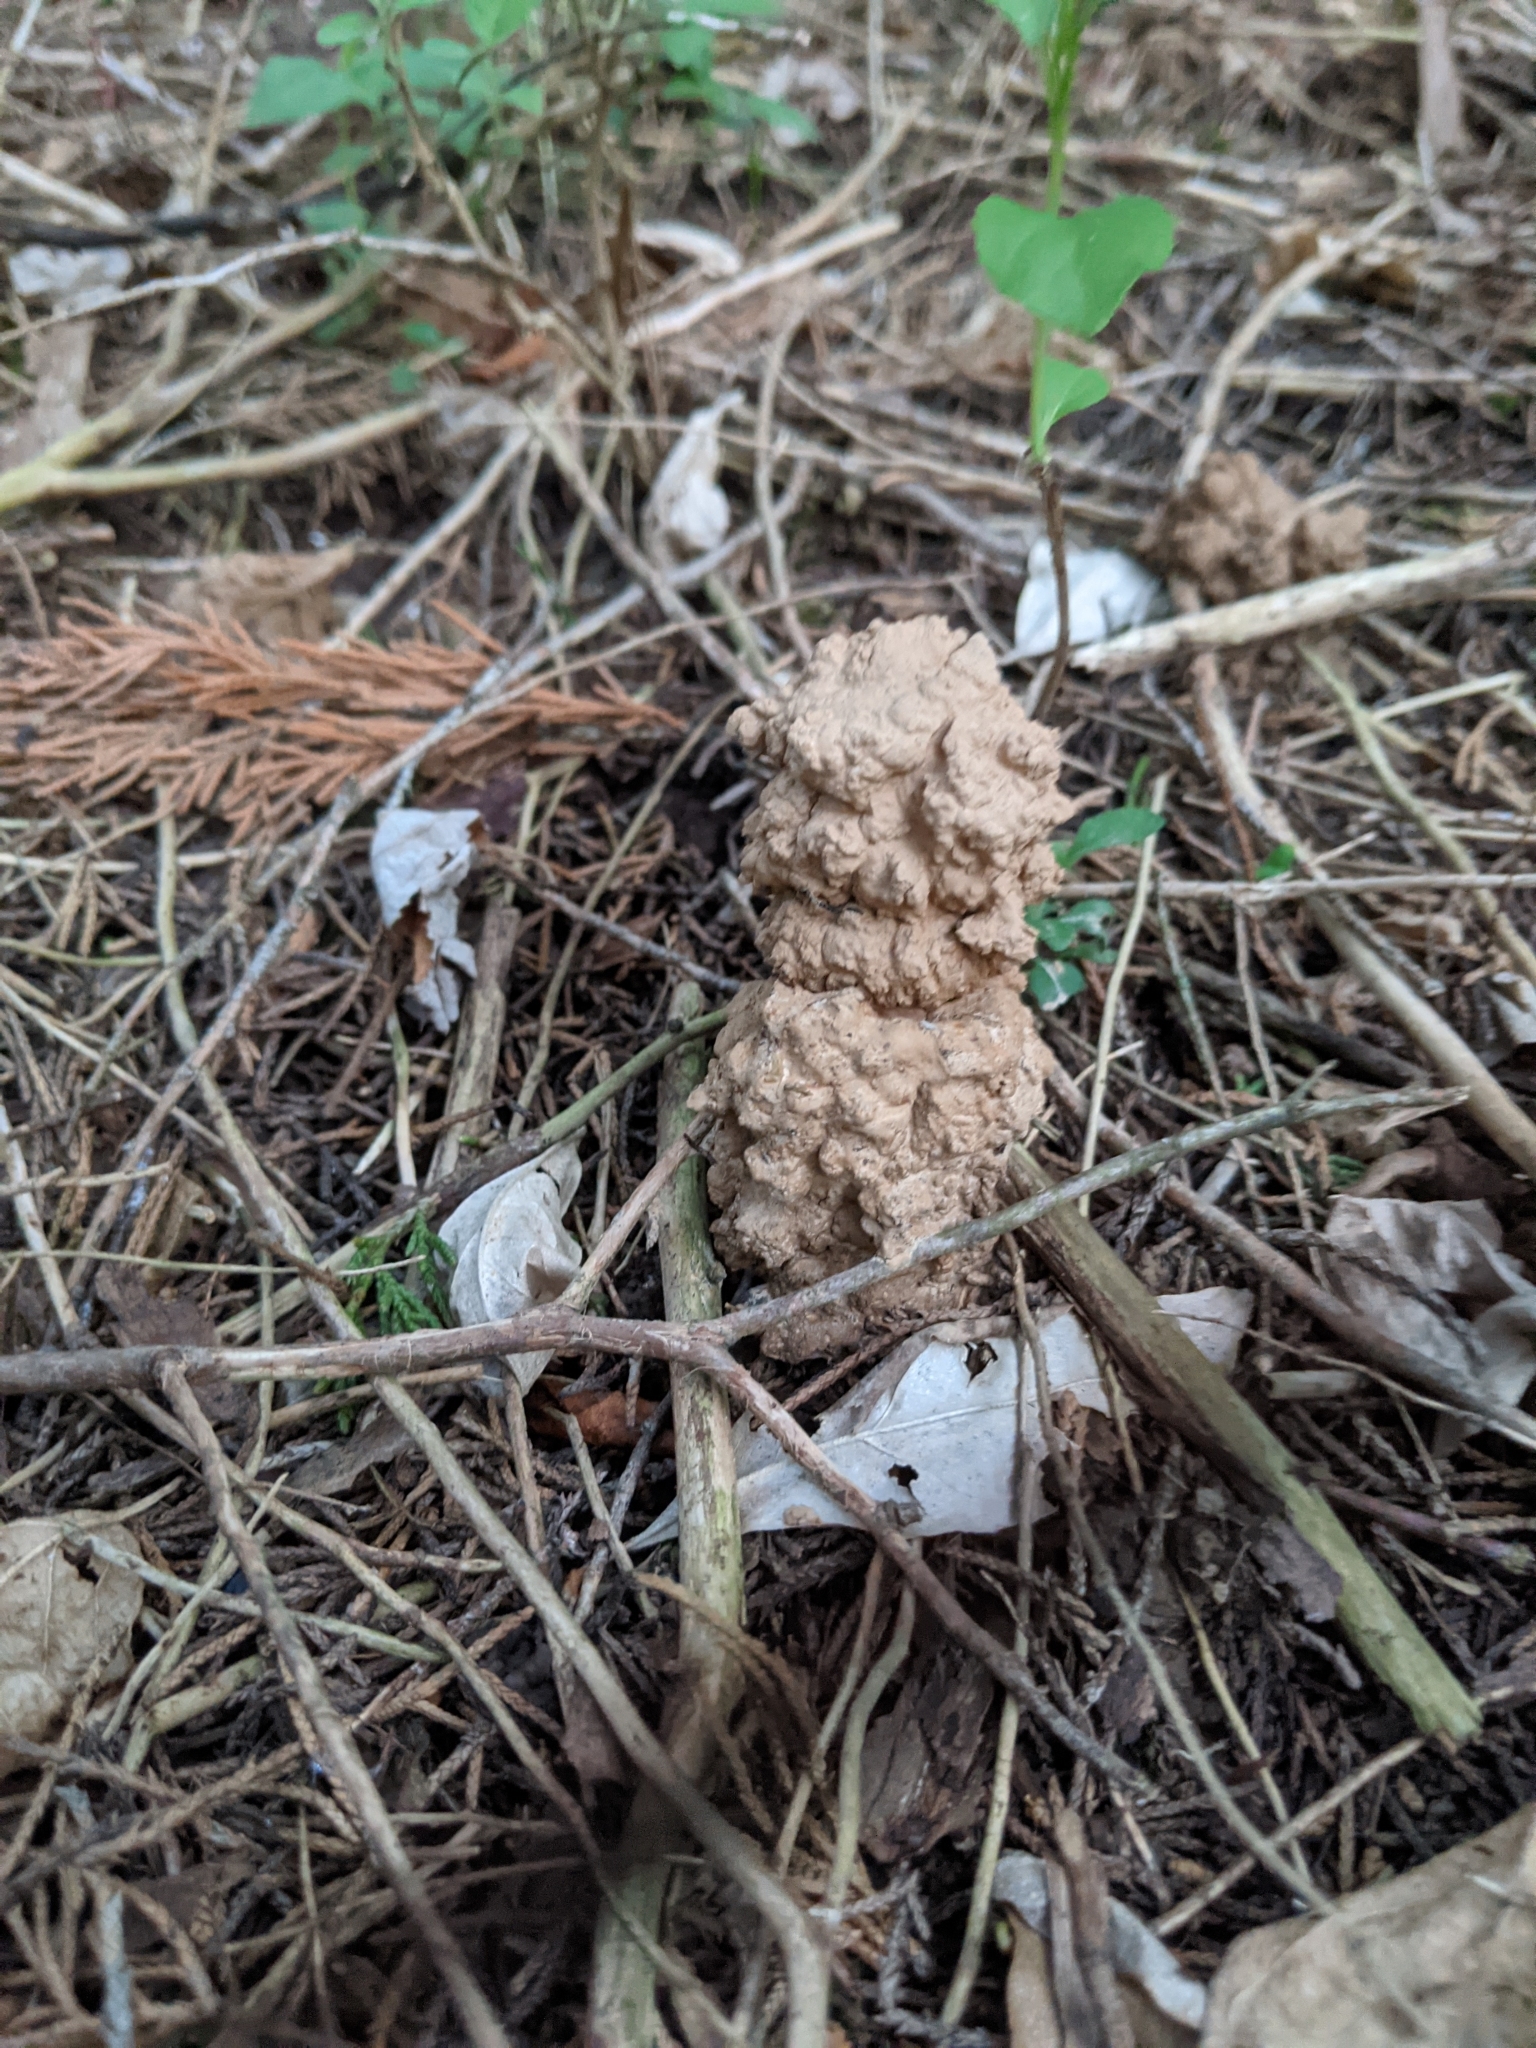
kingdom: Animalia
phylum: Arthropoda
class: Insecta
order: Hemiptera
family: Cicadidae
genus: Magicicada
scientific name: Magicicada
